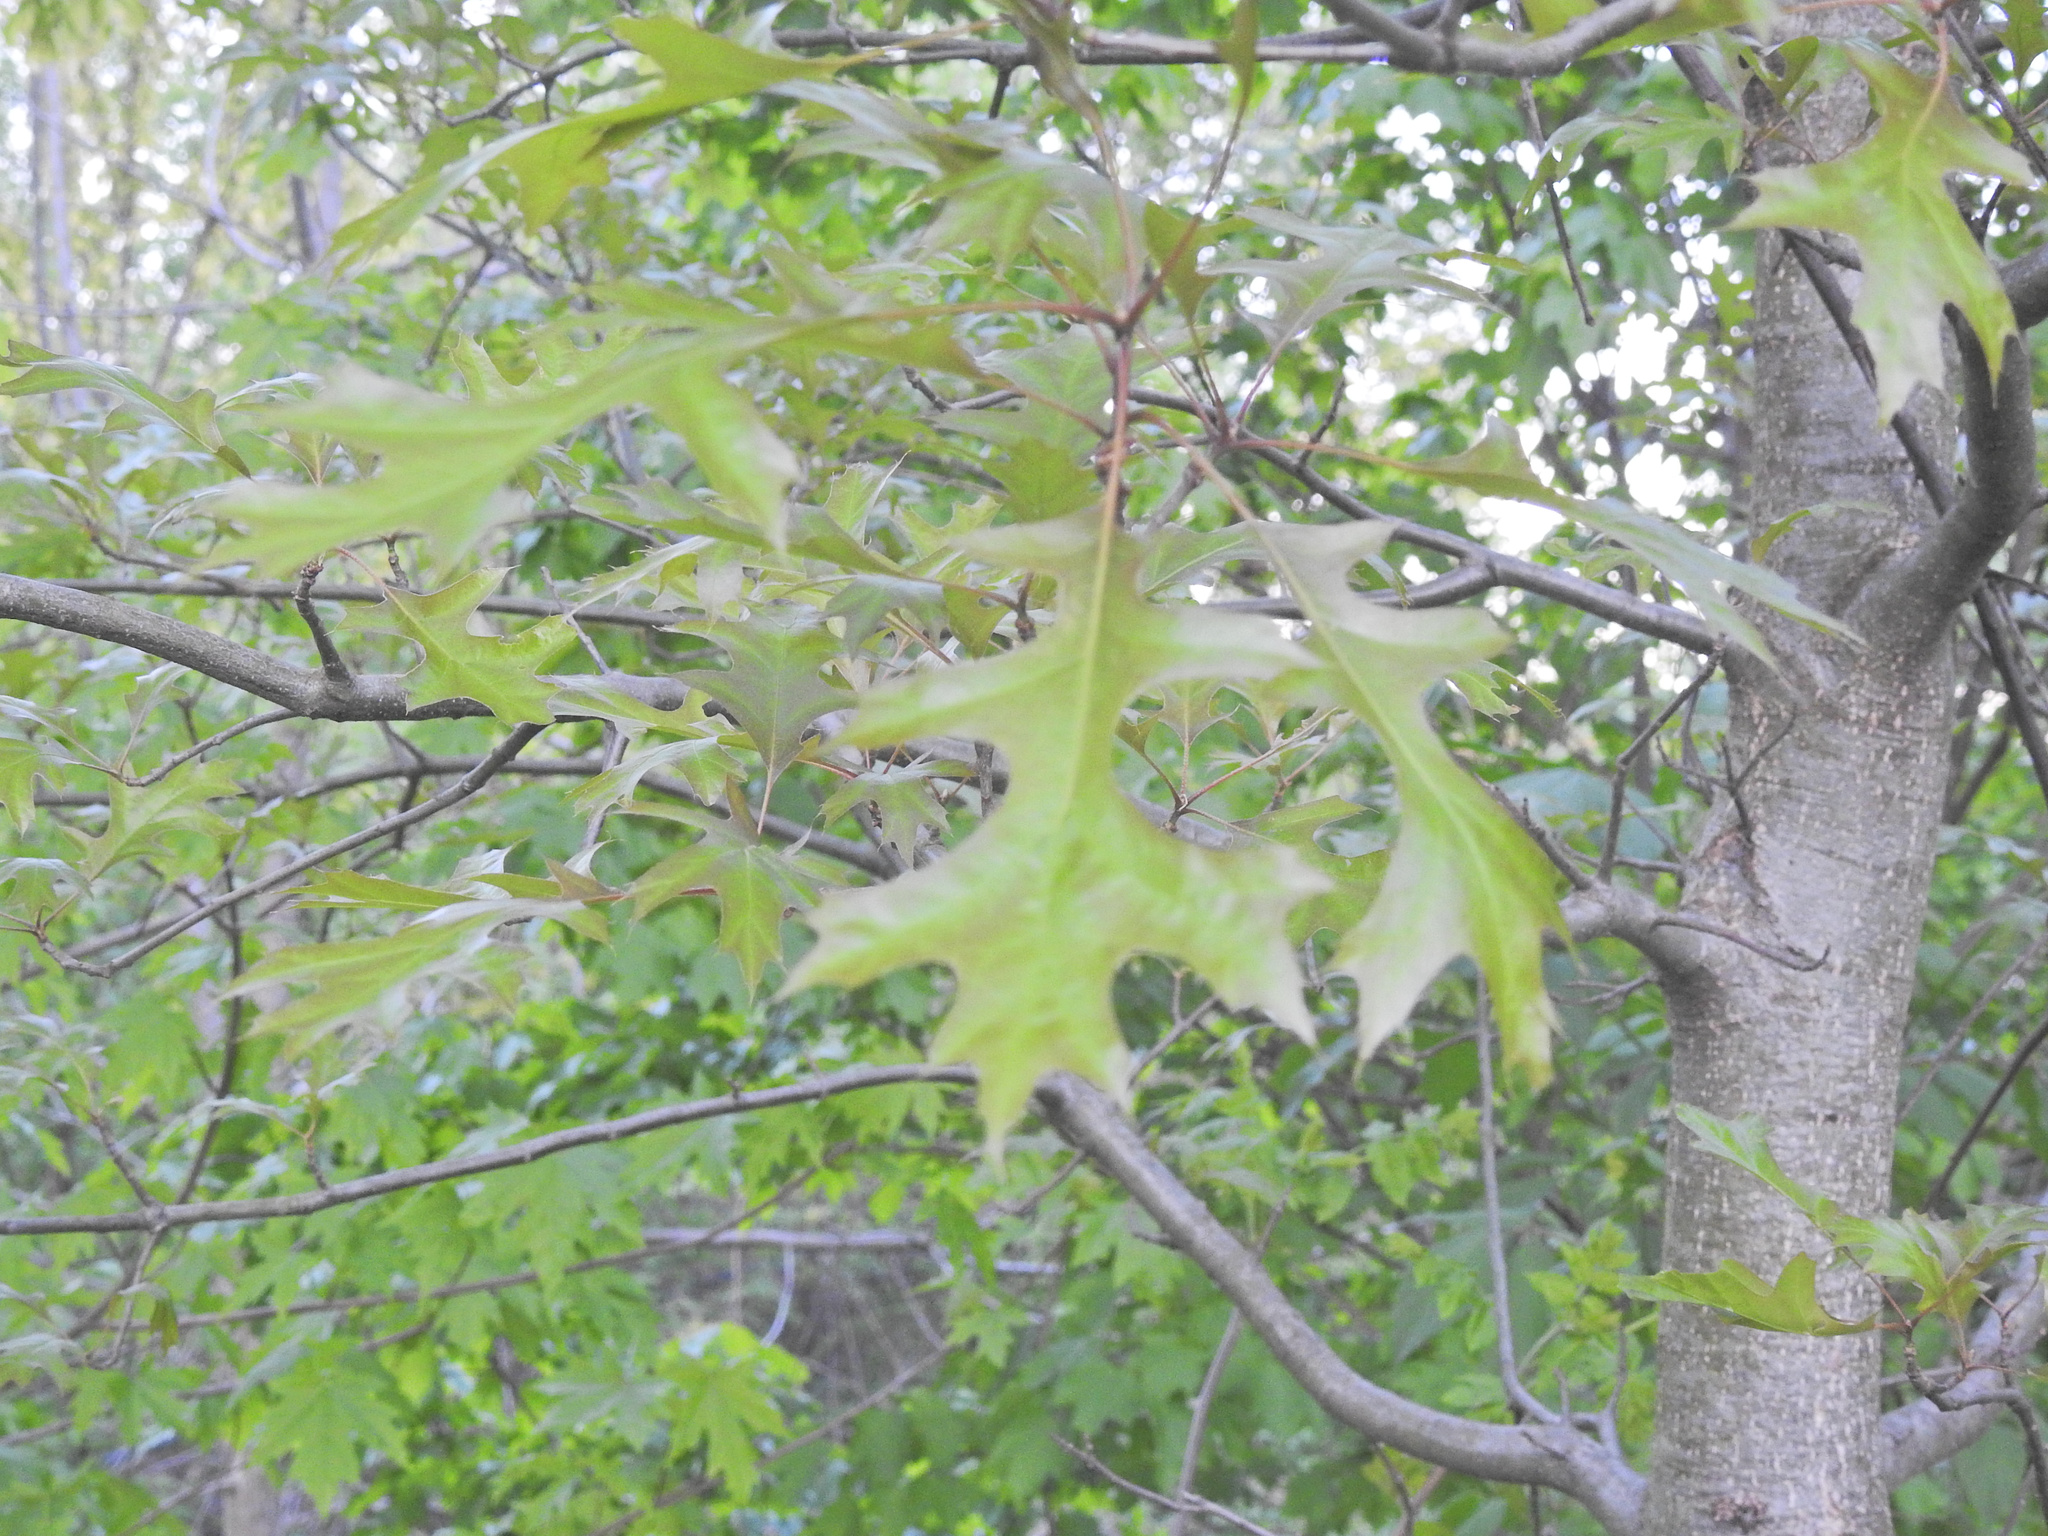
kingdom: Plantae
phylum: Tracheophyta
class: Magnoliopsida
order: Fagales
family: Fagaceae
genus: Quercus
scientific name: Quercus palustris
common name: Pin oak
